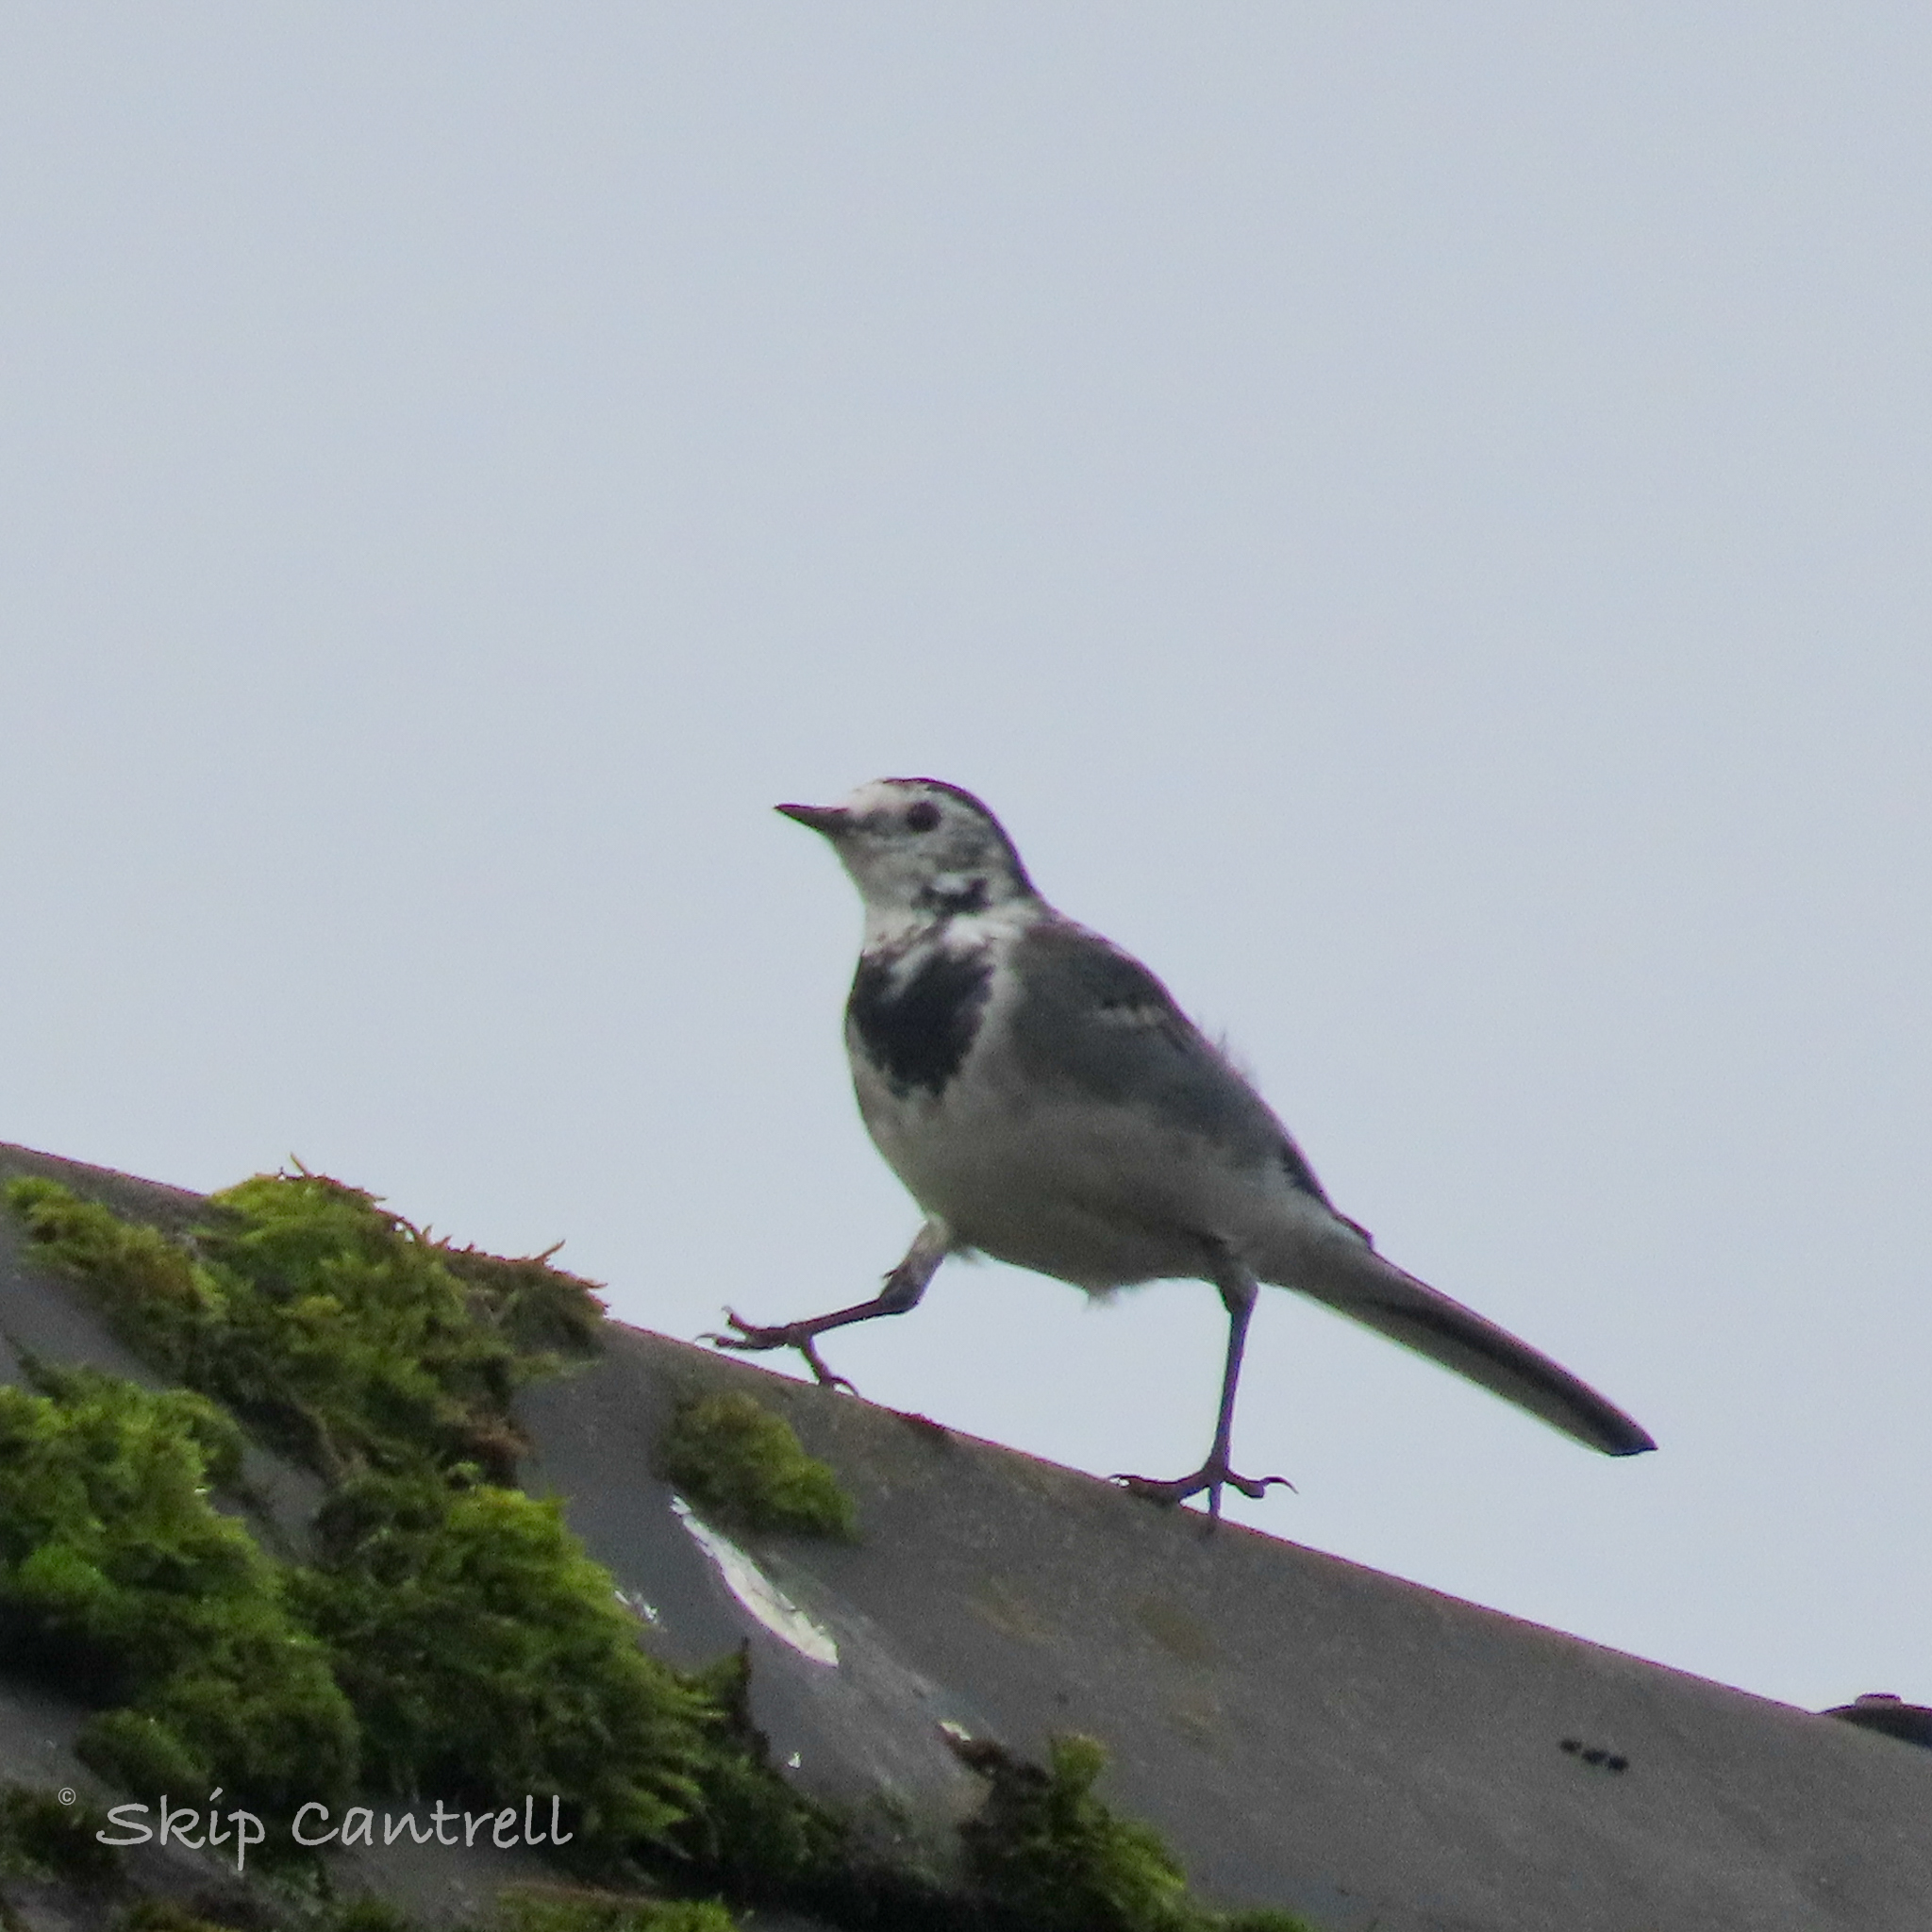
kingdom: Animalia
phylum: Chordata
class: Aves
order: Passeriformes
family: Motacillidae
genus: Motacilla
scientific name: Motacilla alba
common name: White wagtail
